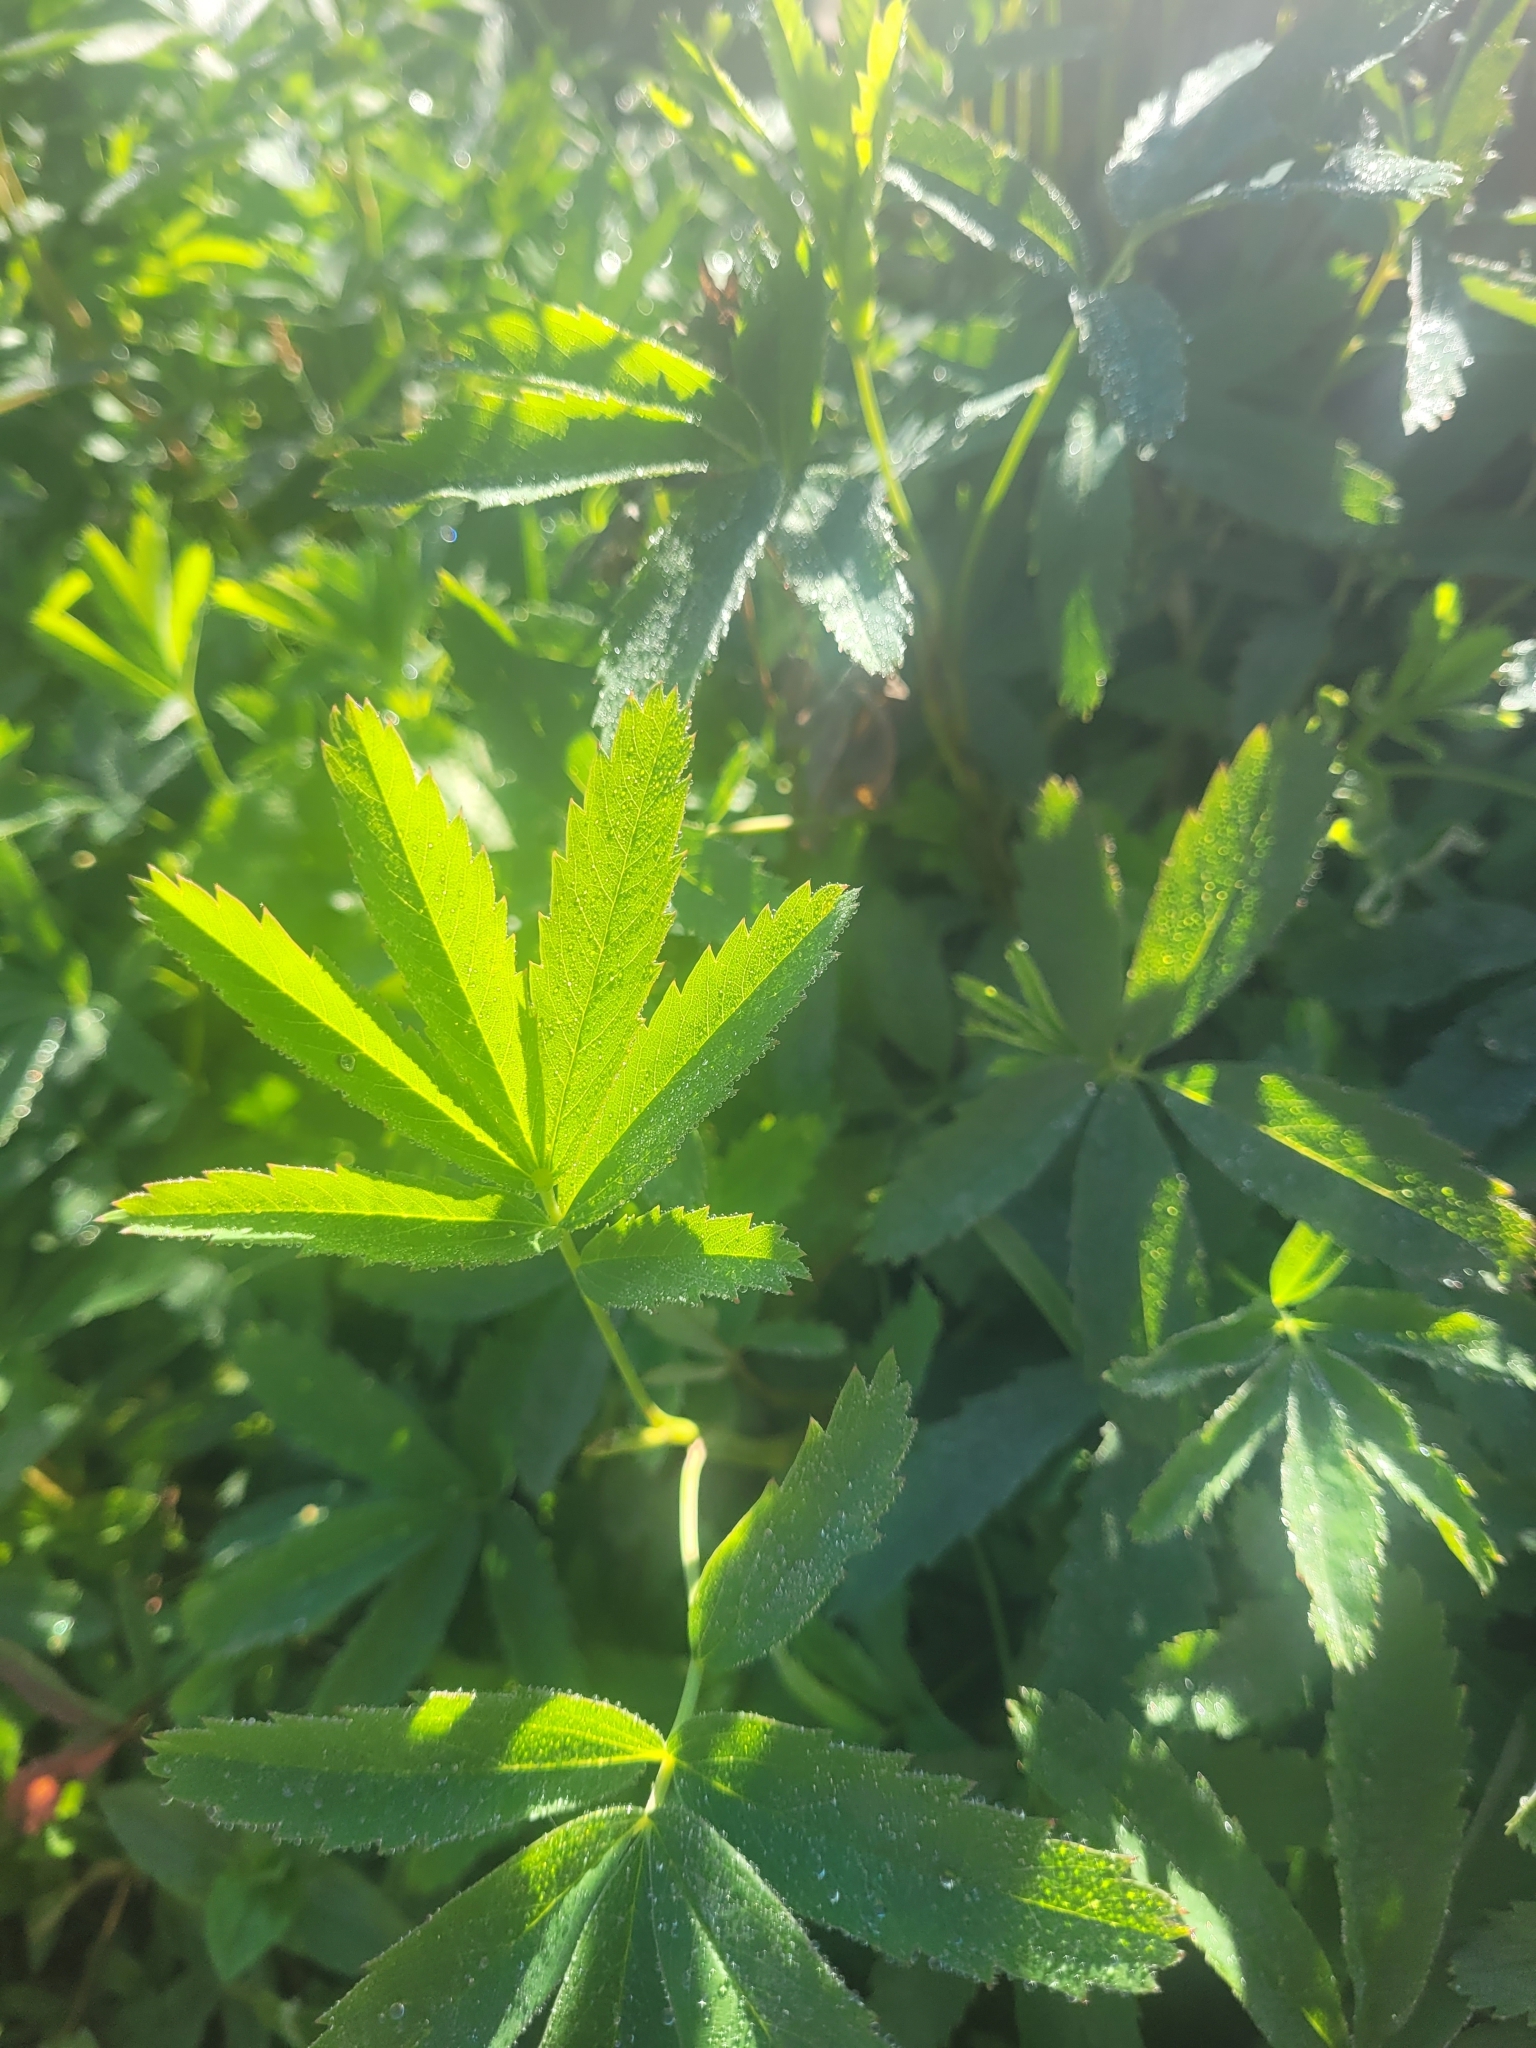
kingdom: Plantae
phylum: Tracheophyta
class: Magnoliopsida
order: Rosales
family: Rosaceae
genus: Comarum
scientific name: Comarum palustre
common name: Marsh cinquefoil
